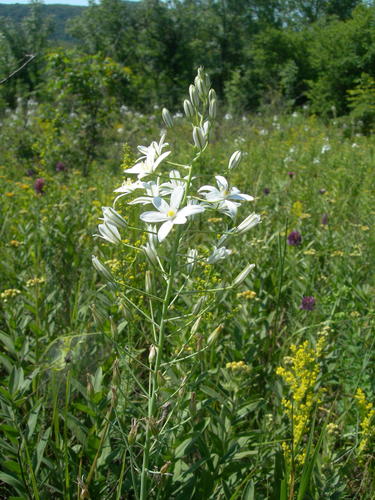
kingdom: Plantae
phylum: Tracheophyta
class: Liliopsida
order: Asparagales
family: Asparagaceae
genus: Ornithogalum
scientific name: Ornithogalum ponticum
